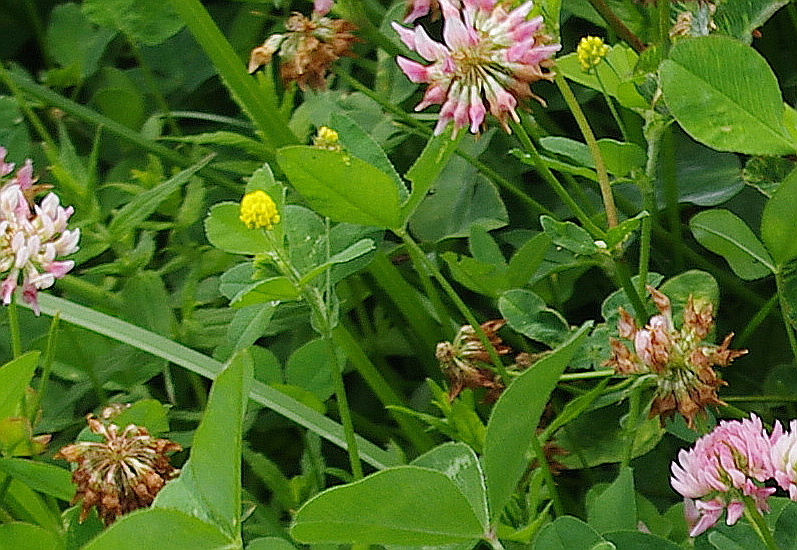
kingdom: Plantae
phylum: Tracheophyta
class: Magnoliopsida
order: Fabales
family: Fabaceae
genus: Medicago
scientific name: Medicago lupulina
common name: Black medick
